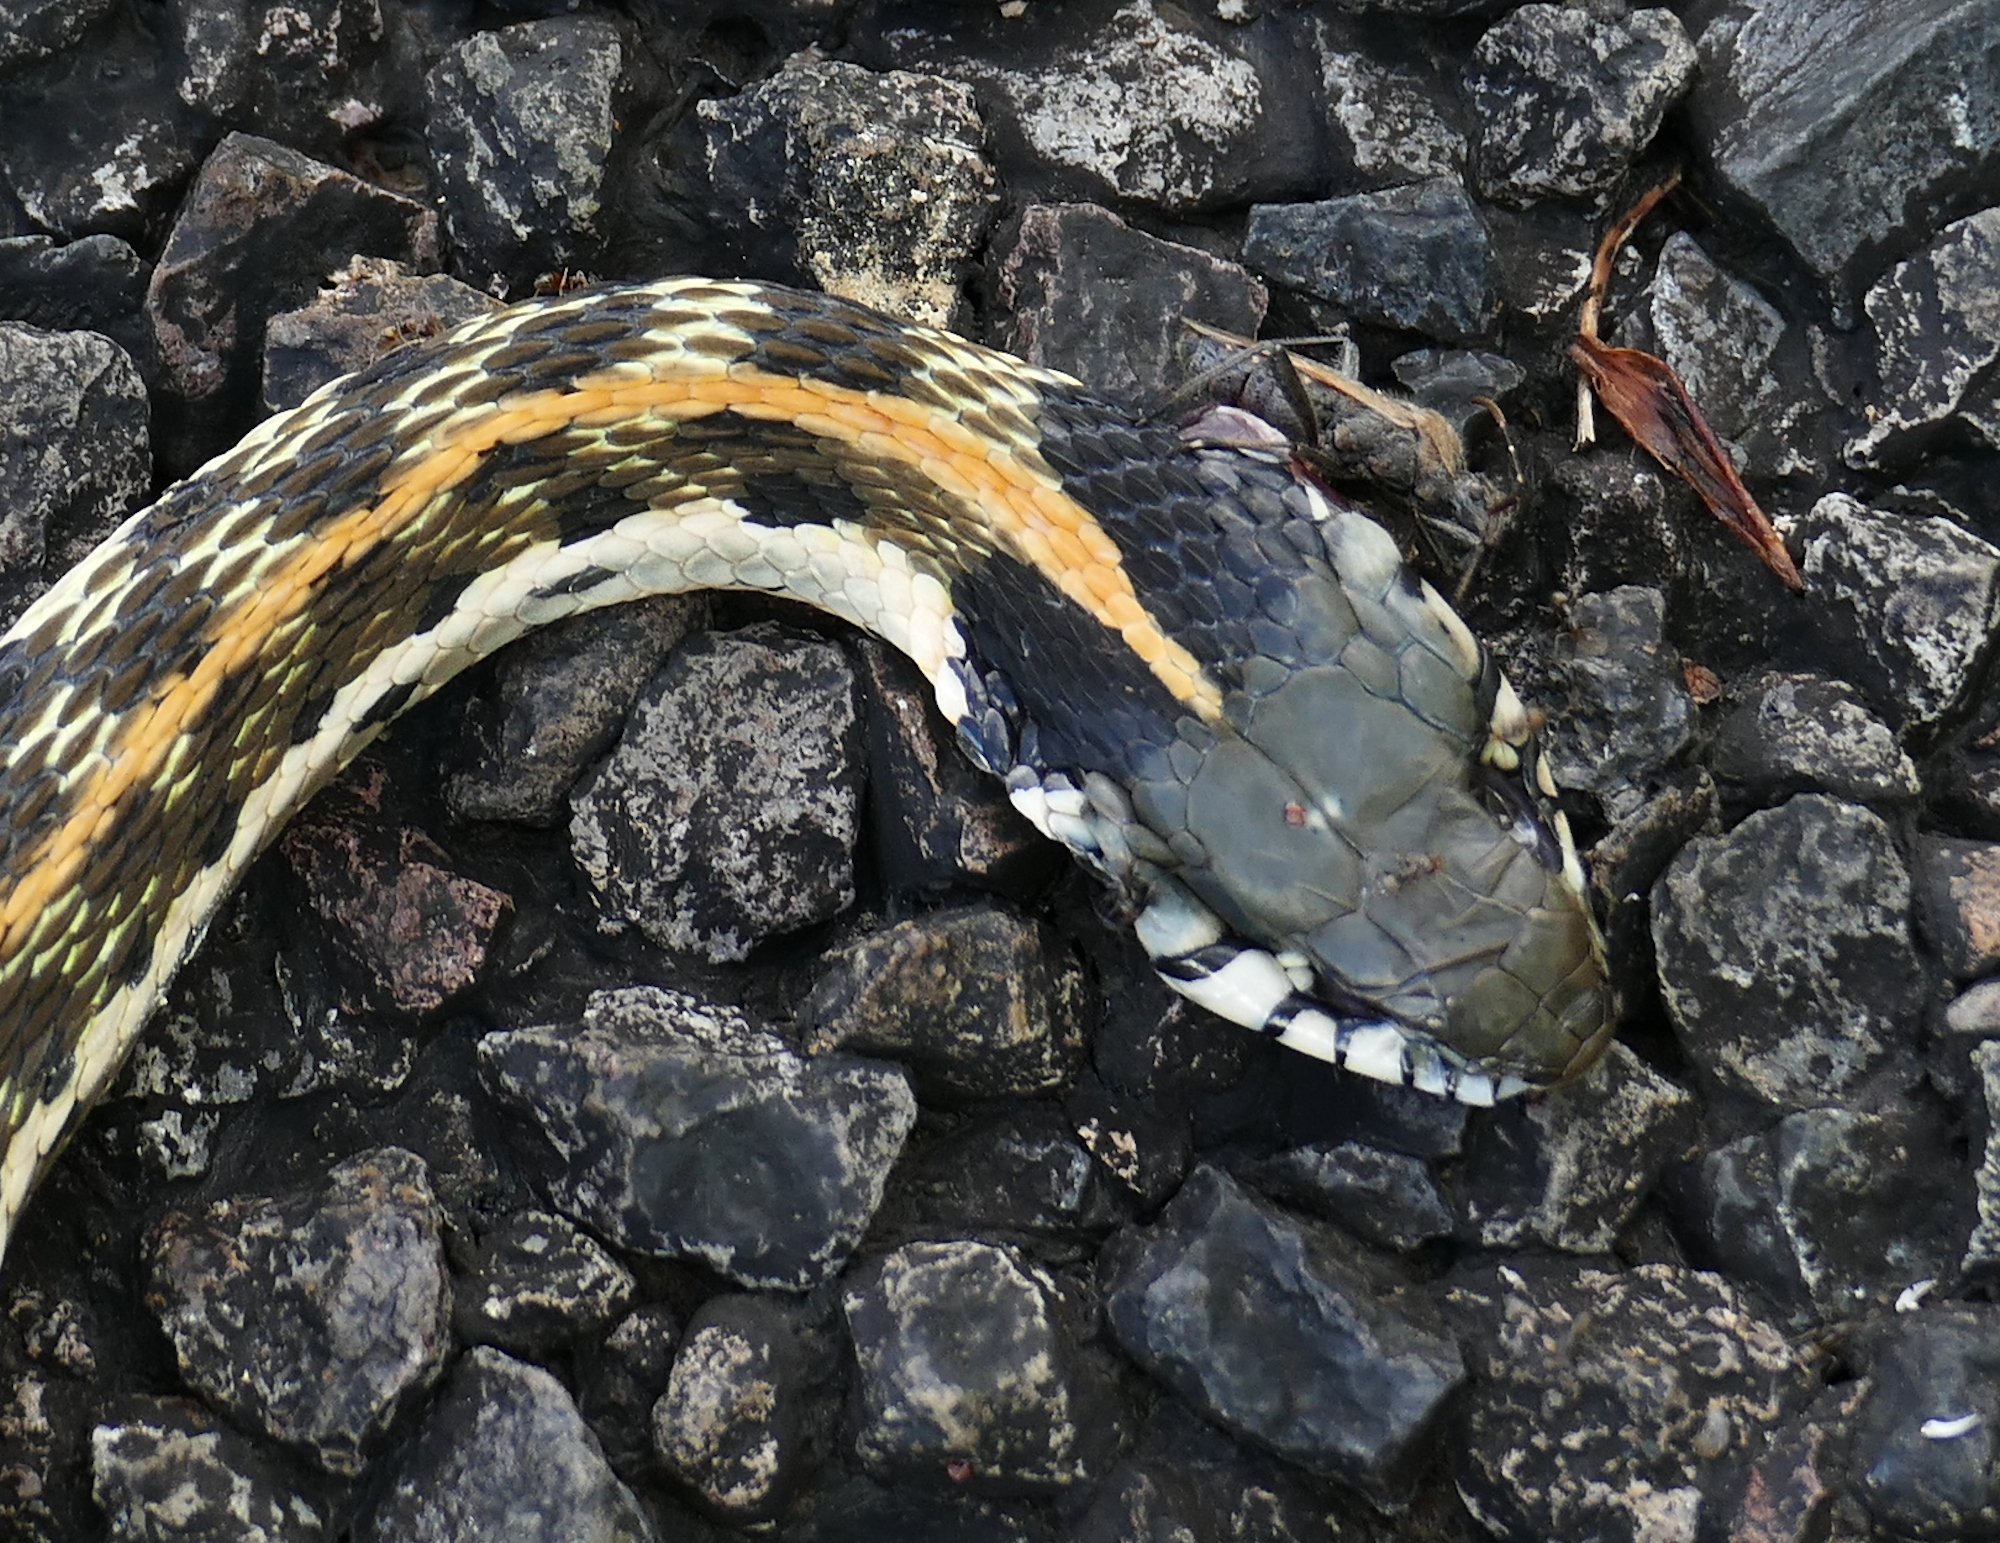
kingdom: Animalia
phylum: Chordata
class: Squamata
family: Colubridae
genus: Thamnophis
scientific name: Thamnophis cyrtopsis
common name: Black-necked gartersnake
